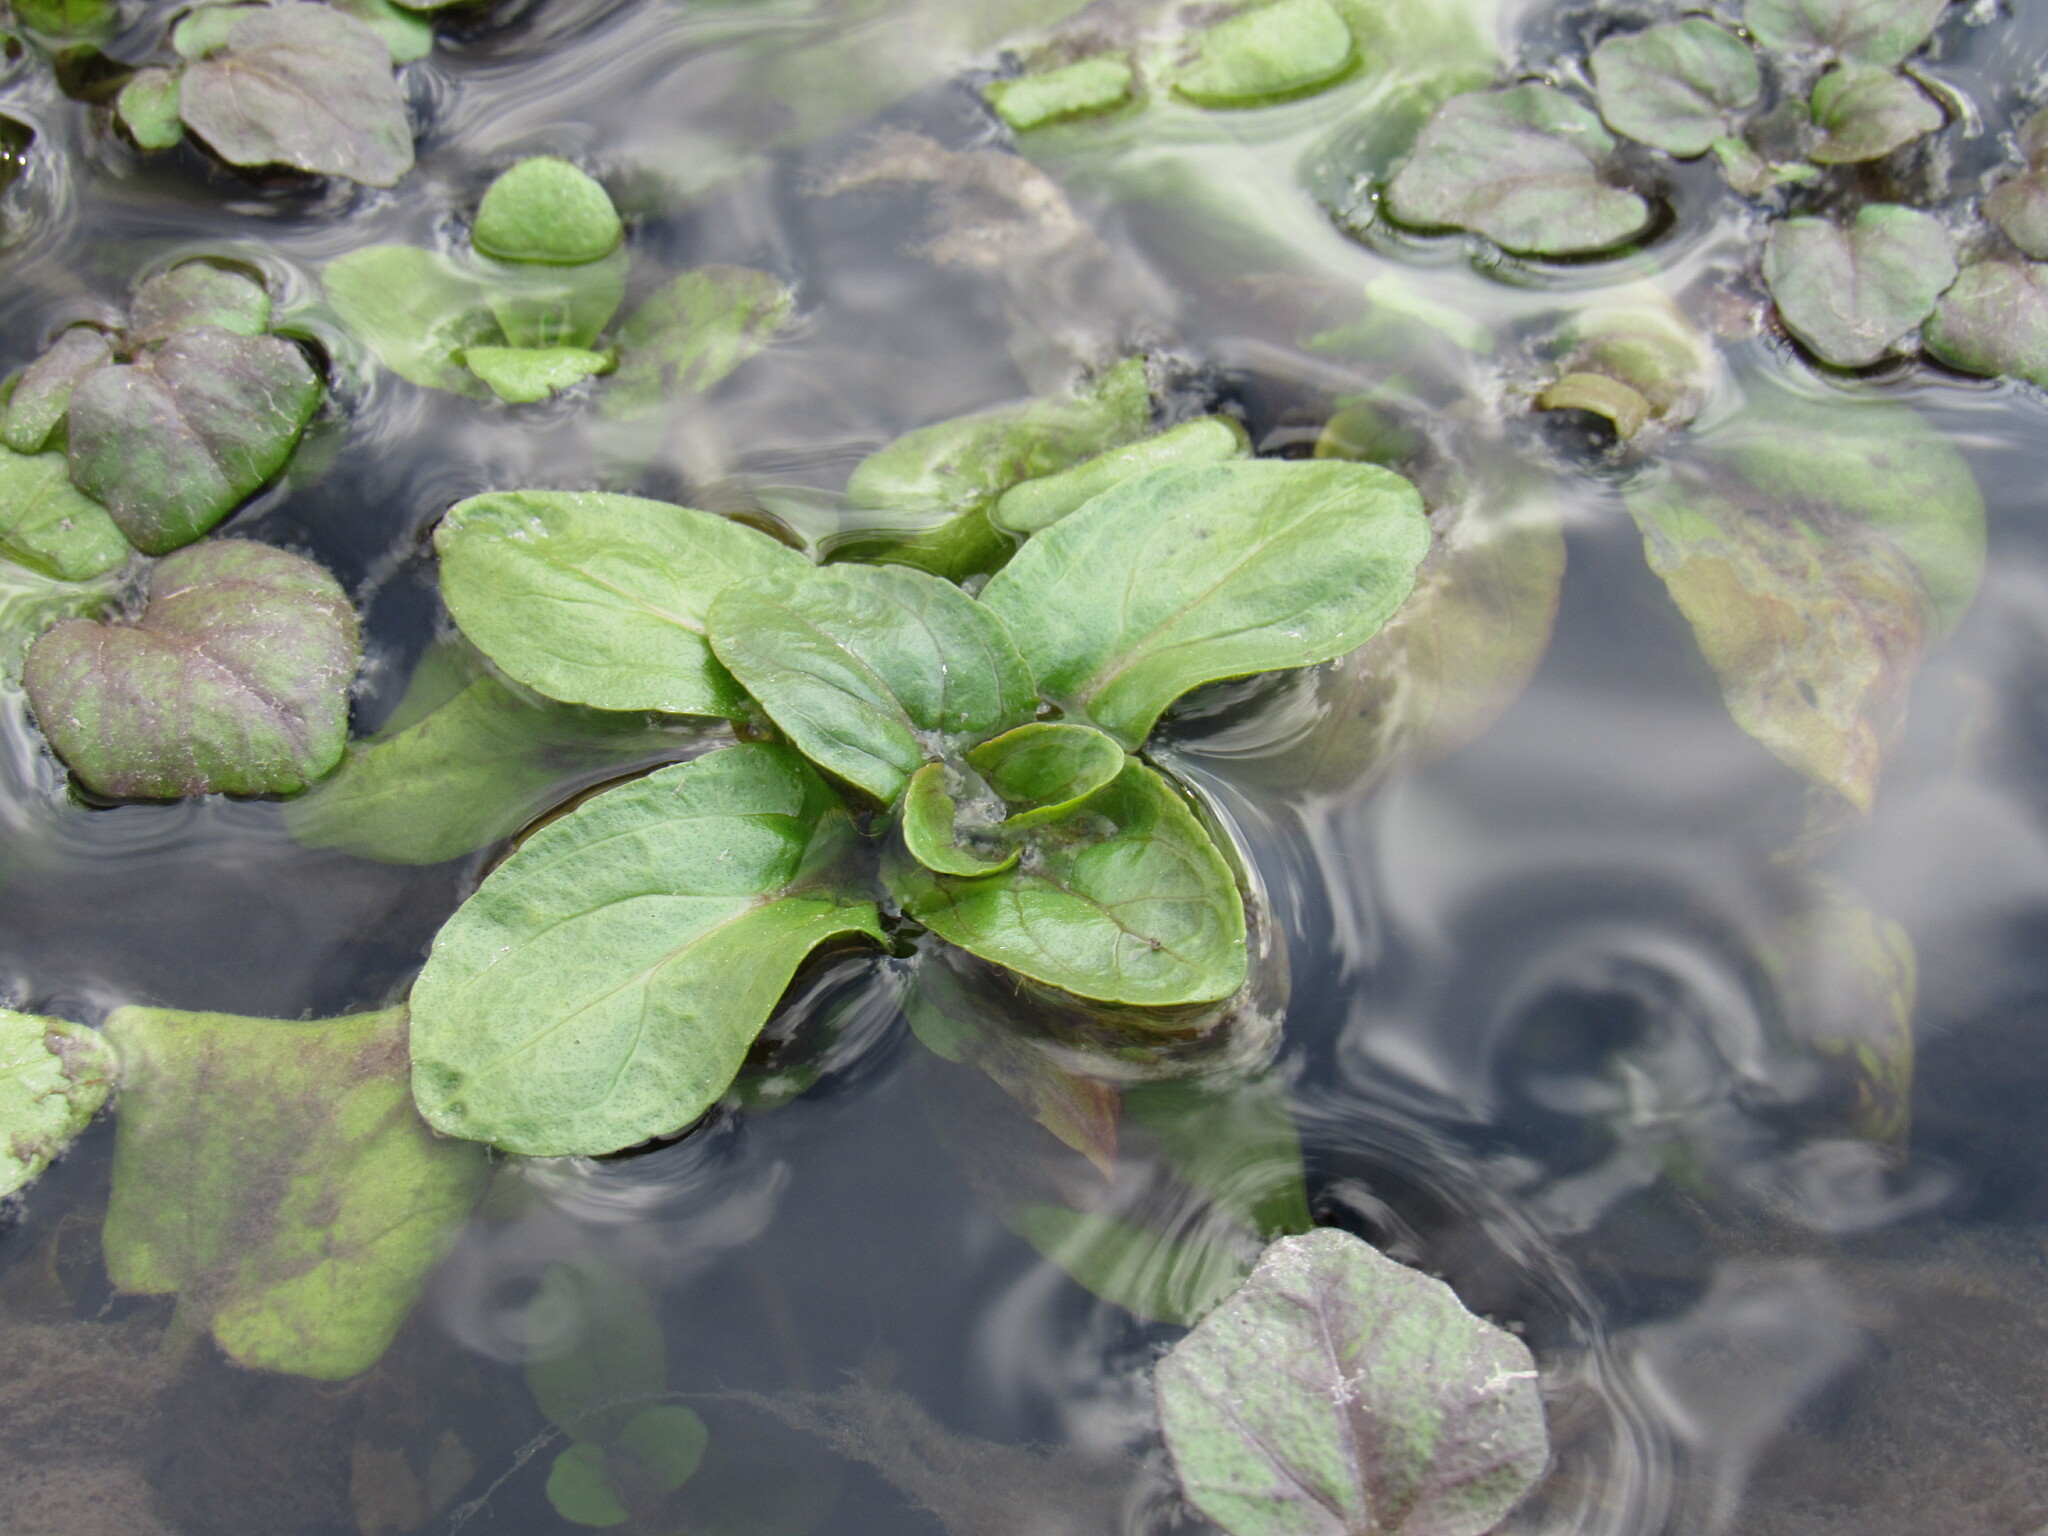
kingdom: Plantae
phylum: Tracheophyta
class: Magnoliopsida
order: Lamiales
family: Plantaginaceae
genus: Veronica
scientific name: Veronica anagallis-aquatica
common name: Water speedwell
